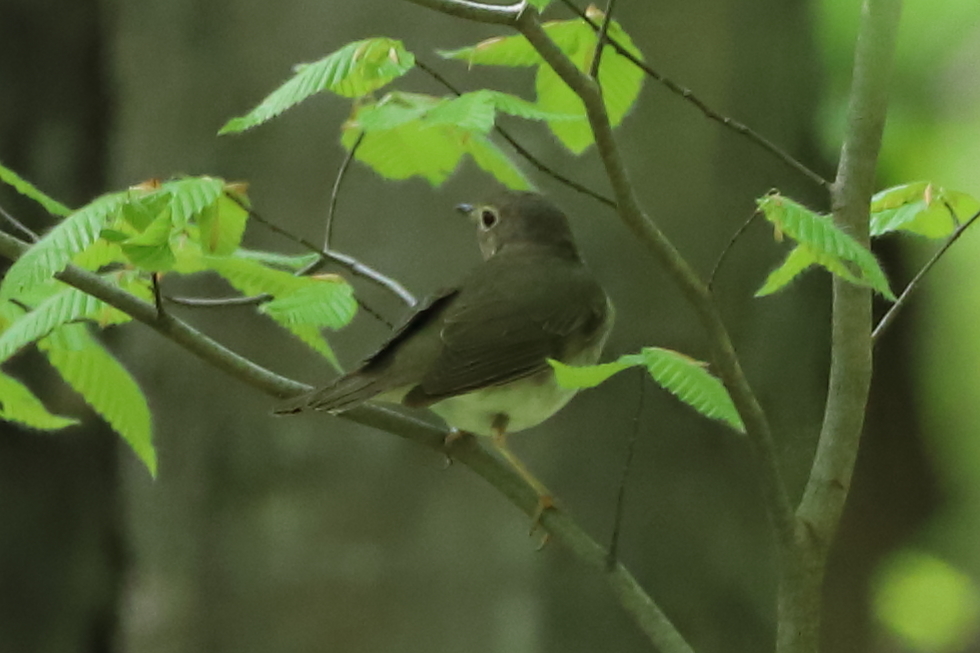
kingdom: Animalia
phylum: Chordata
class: Aves
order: Passeriformes
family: Turdidae
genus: Catharus
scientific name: Catharus ustulatus
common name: Swainson's thrush
